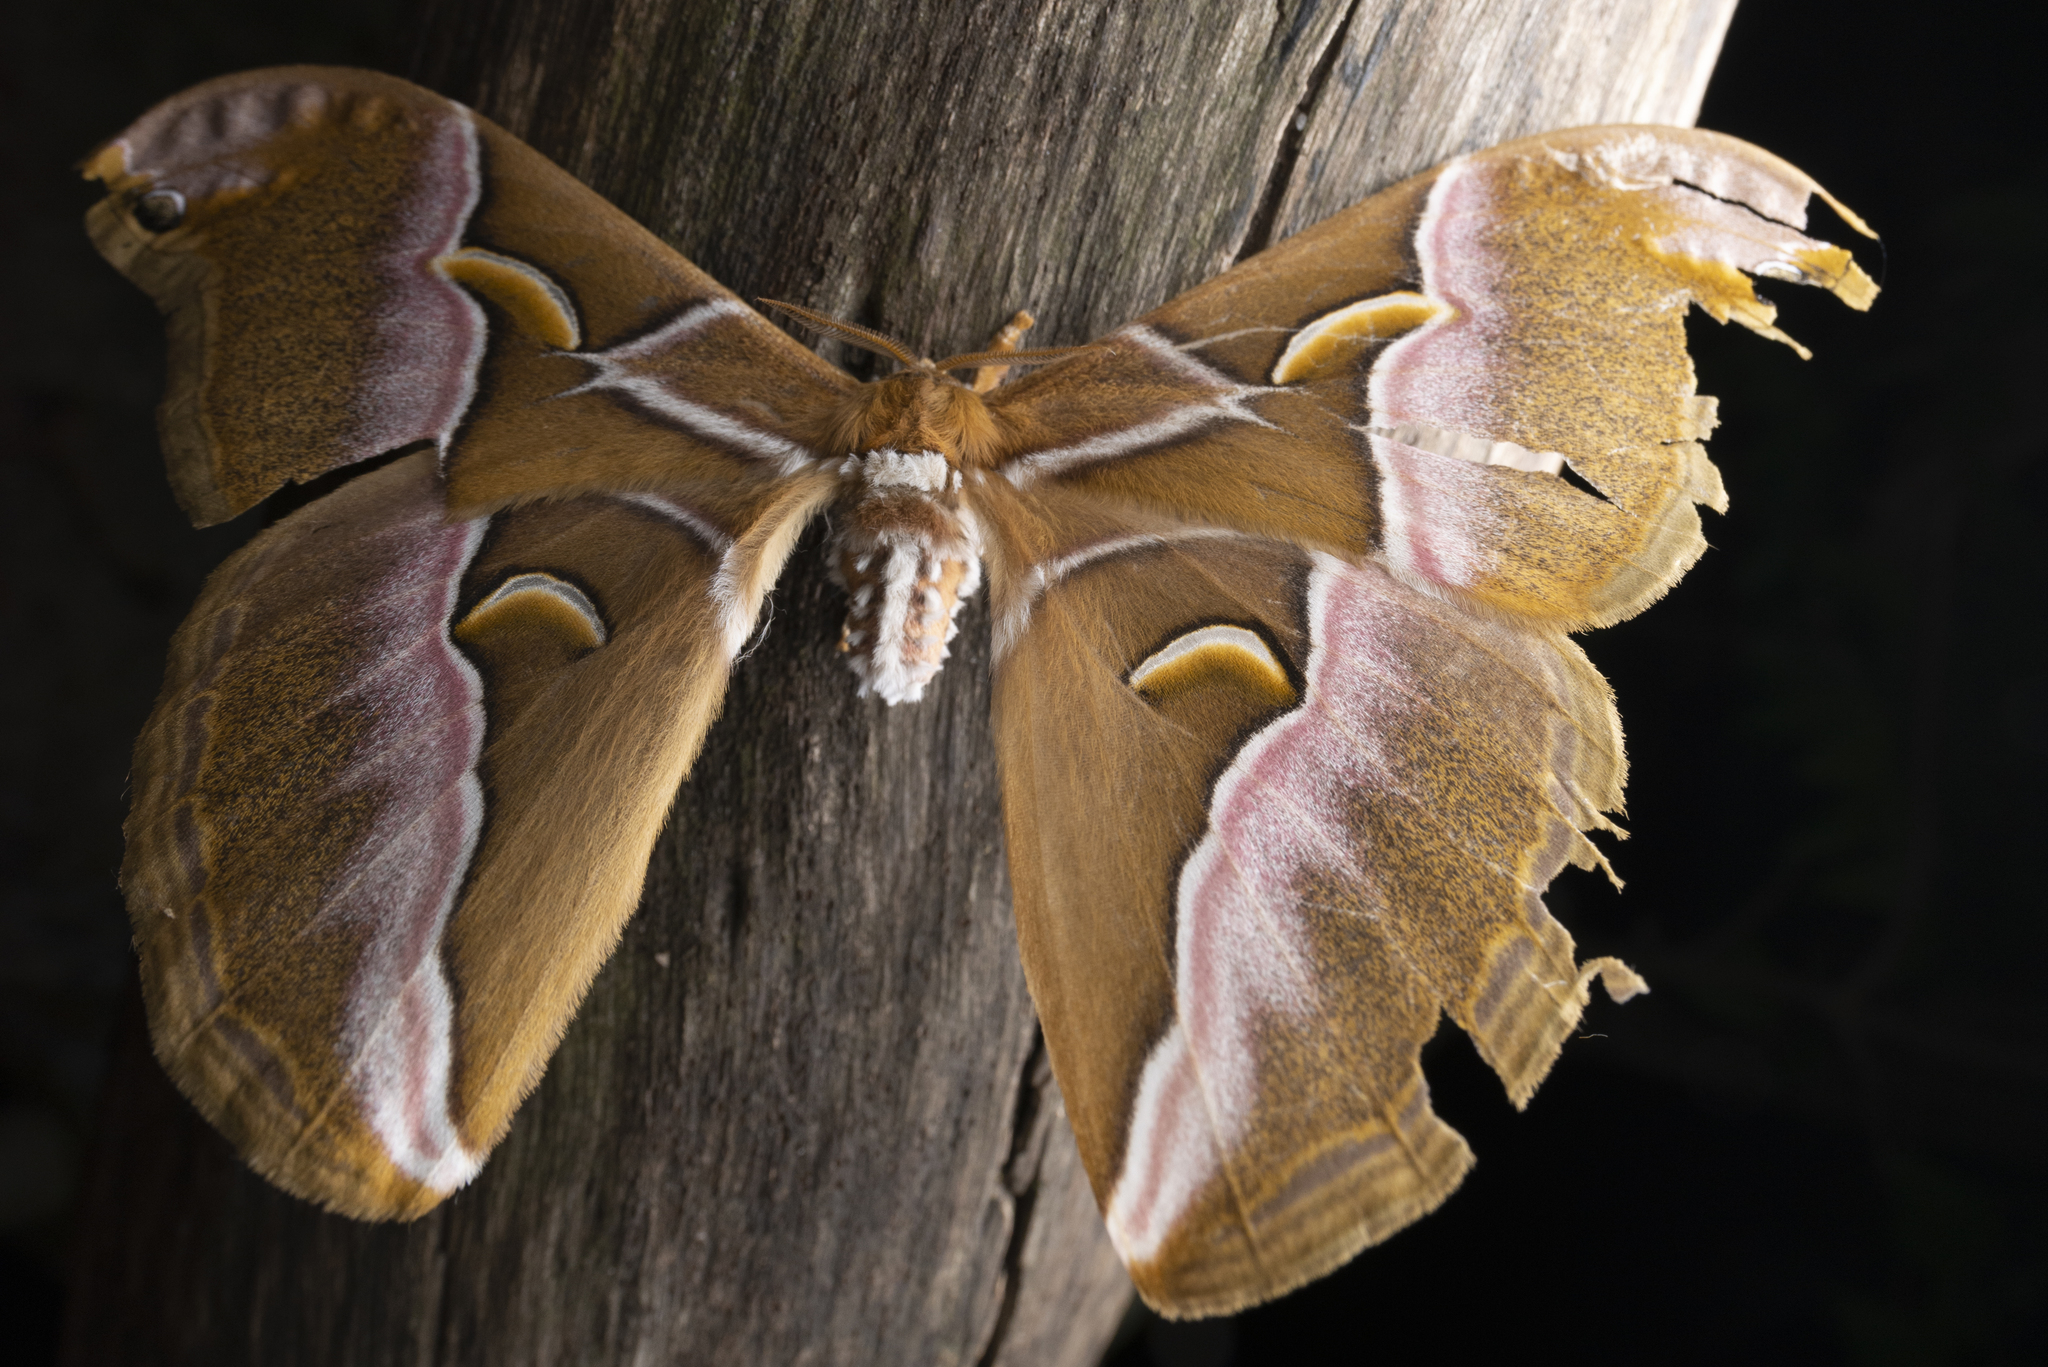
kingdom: Animalia
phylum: Arthropoda
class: Insecta
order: Lepidoptera
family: Saturniidae
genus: Samia
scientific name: Samia wangi
